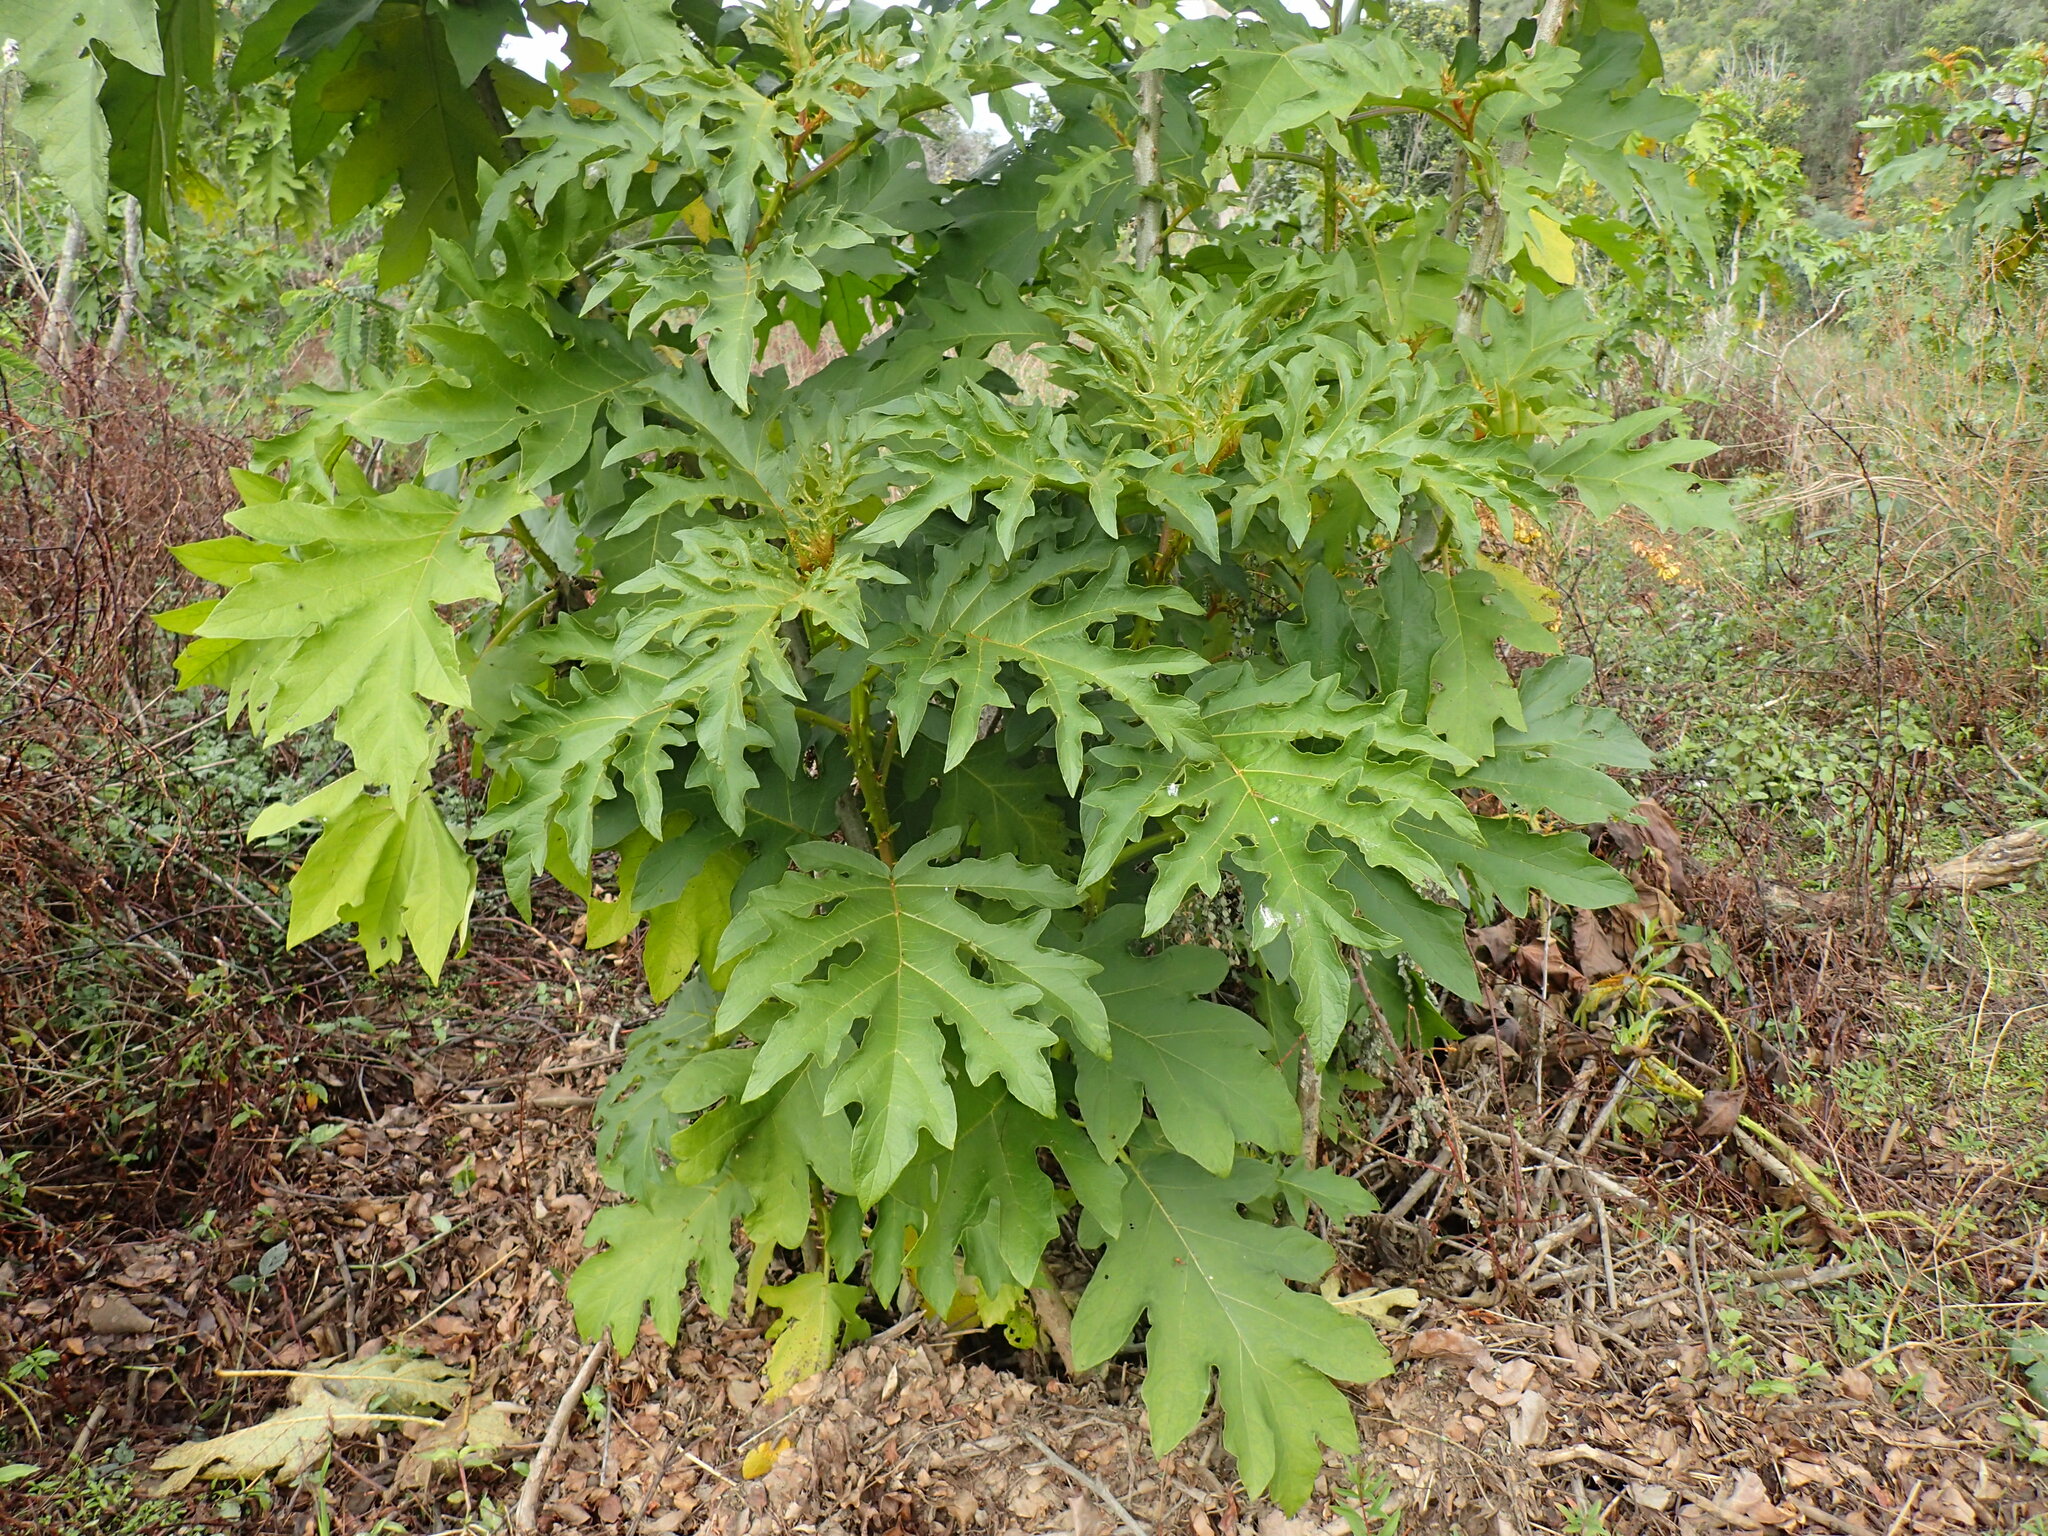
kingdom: Plantae
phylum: Tracheophyta
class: Magnoliopsida
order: Solanales
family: Solanaceae
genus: Solanum
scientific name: Solanum chrysotrichum
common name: Nightshade
